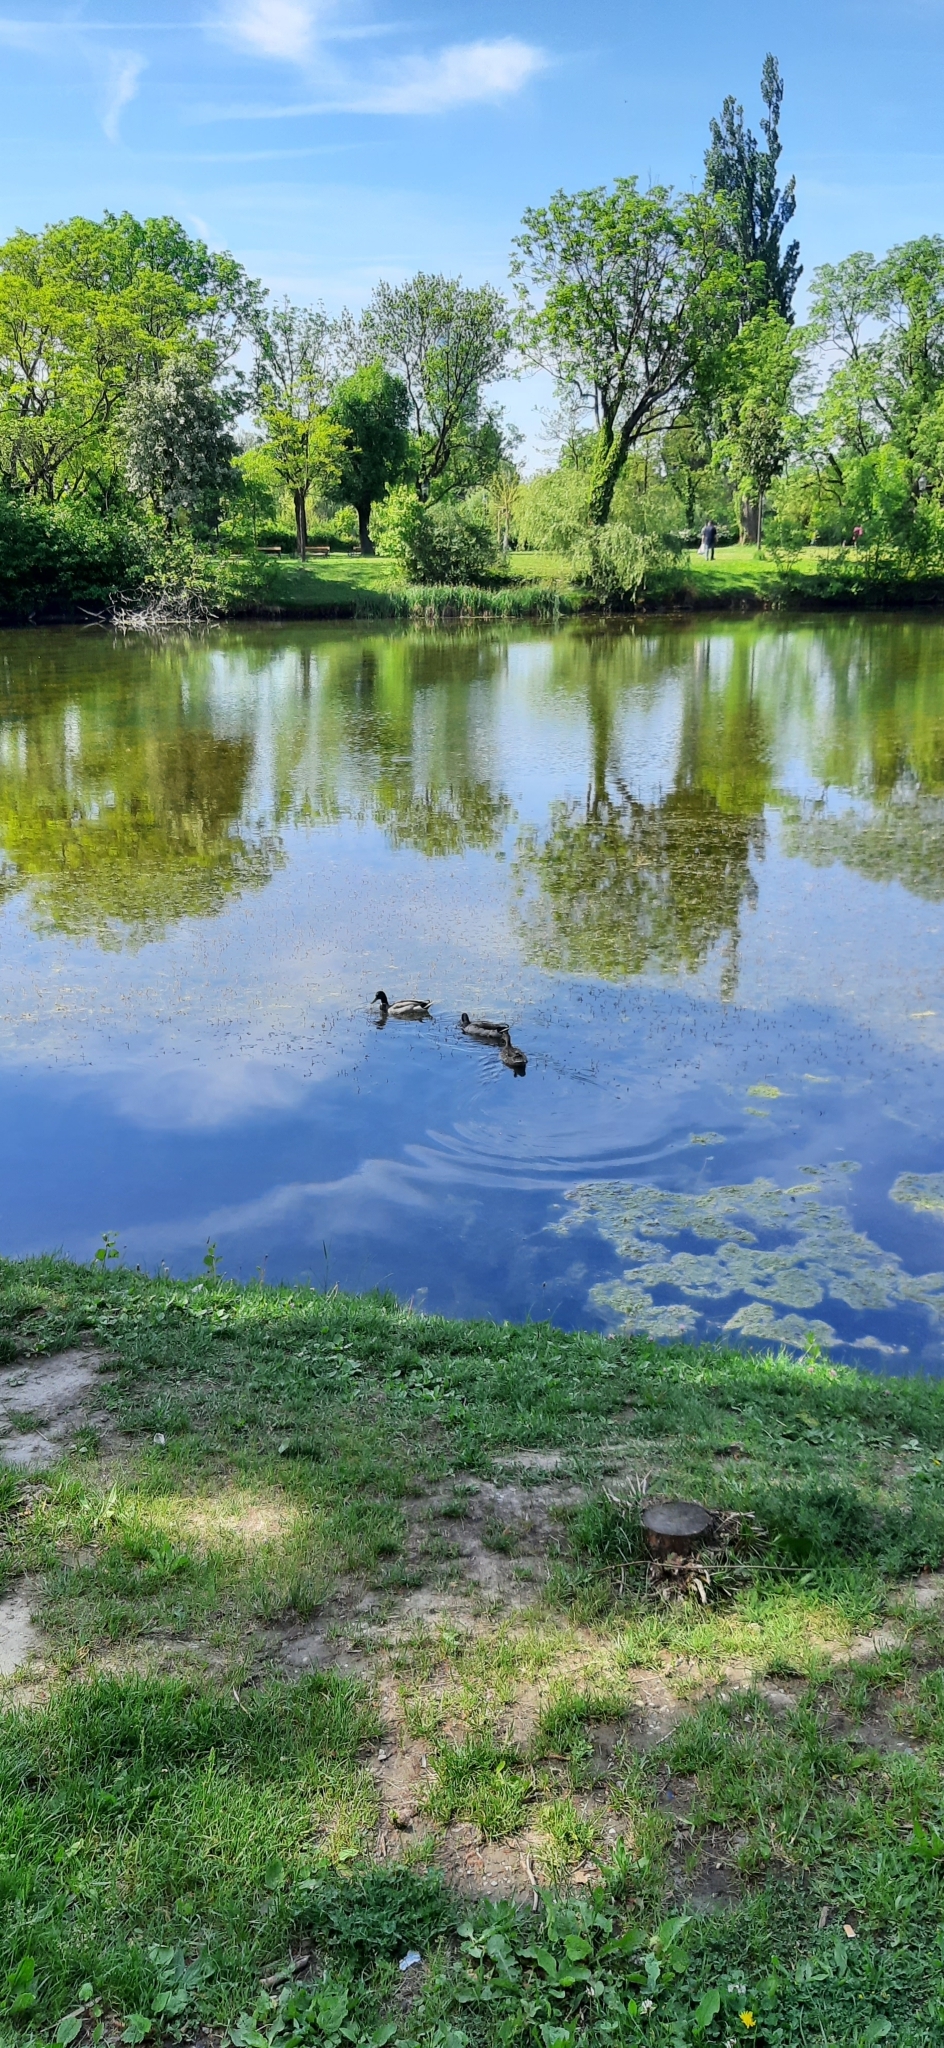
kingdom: Animalia
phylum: Chordata
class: Aves
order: Anseriformes
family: Anatidae
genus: Anas
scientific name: Anas platyrhynchos
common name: Mallard
